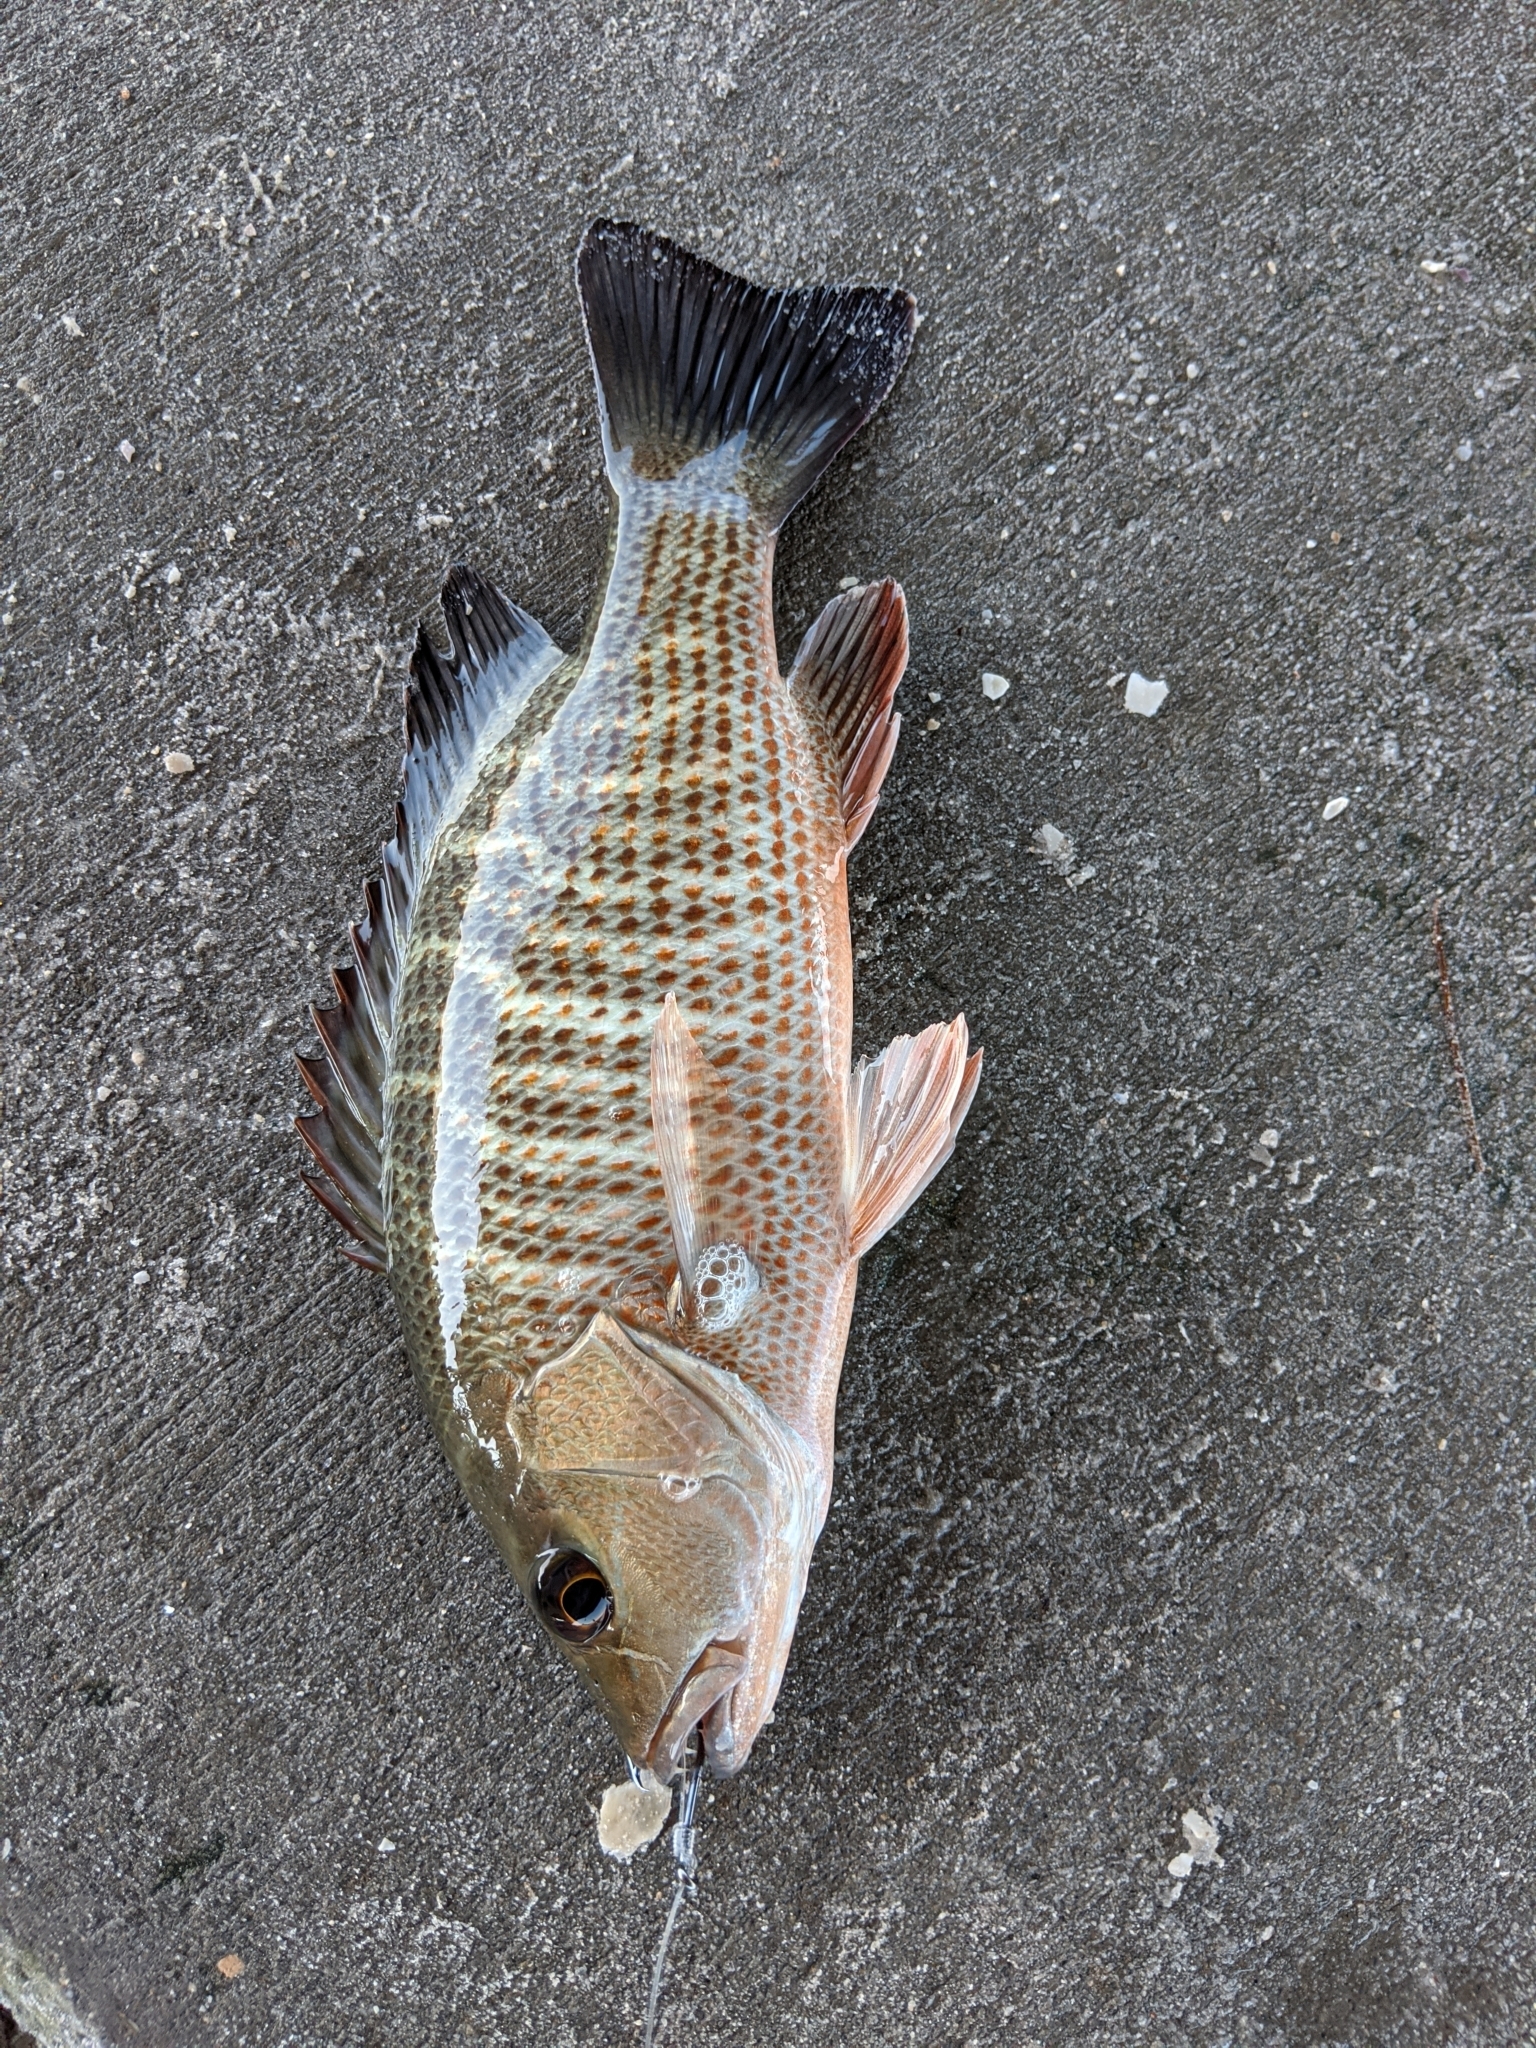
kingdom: Animalia
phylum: Chordata
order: Perciformes
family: Lutjanidae
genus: Lutjanus
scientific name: Lutjanus griseus
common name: Gray snapper
